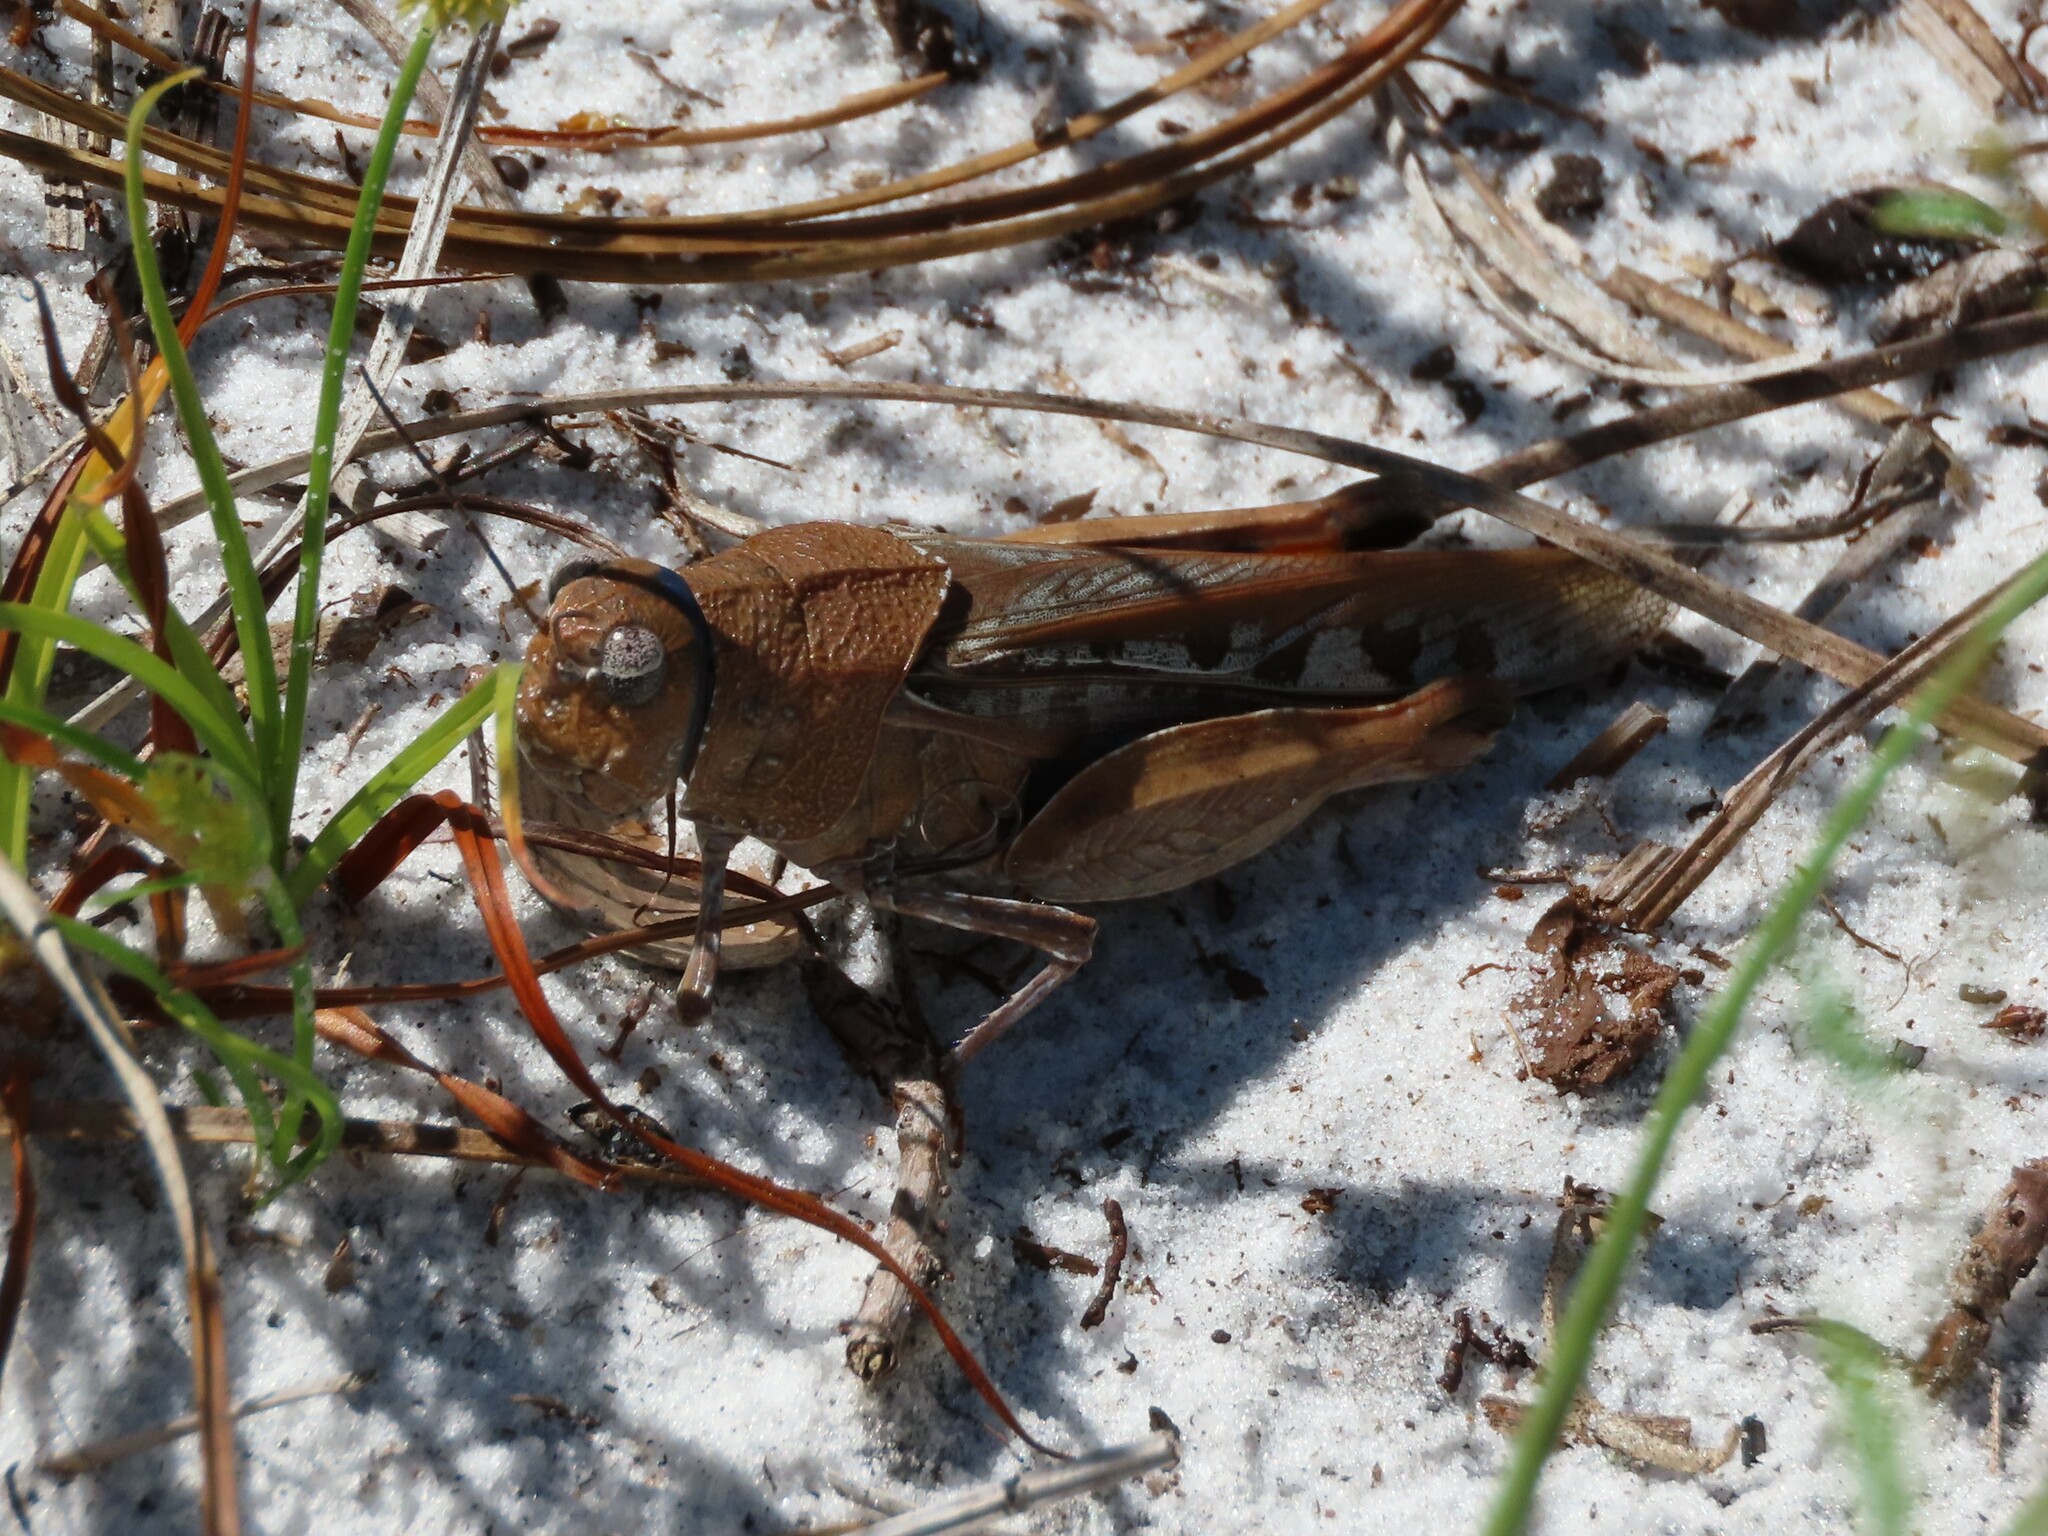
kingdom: Animalia
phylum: Arthropoda
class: Insecta
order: Orthoptera
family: Acrididae
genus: Pardalophora
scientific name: Pardalophora phoenicoptera
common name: Orange-winged grasshopper
